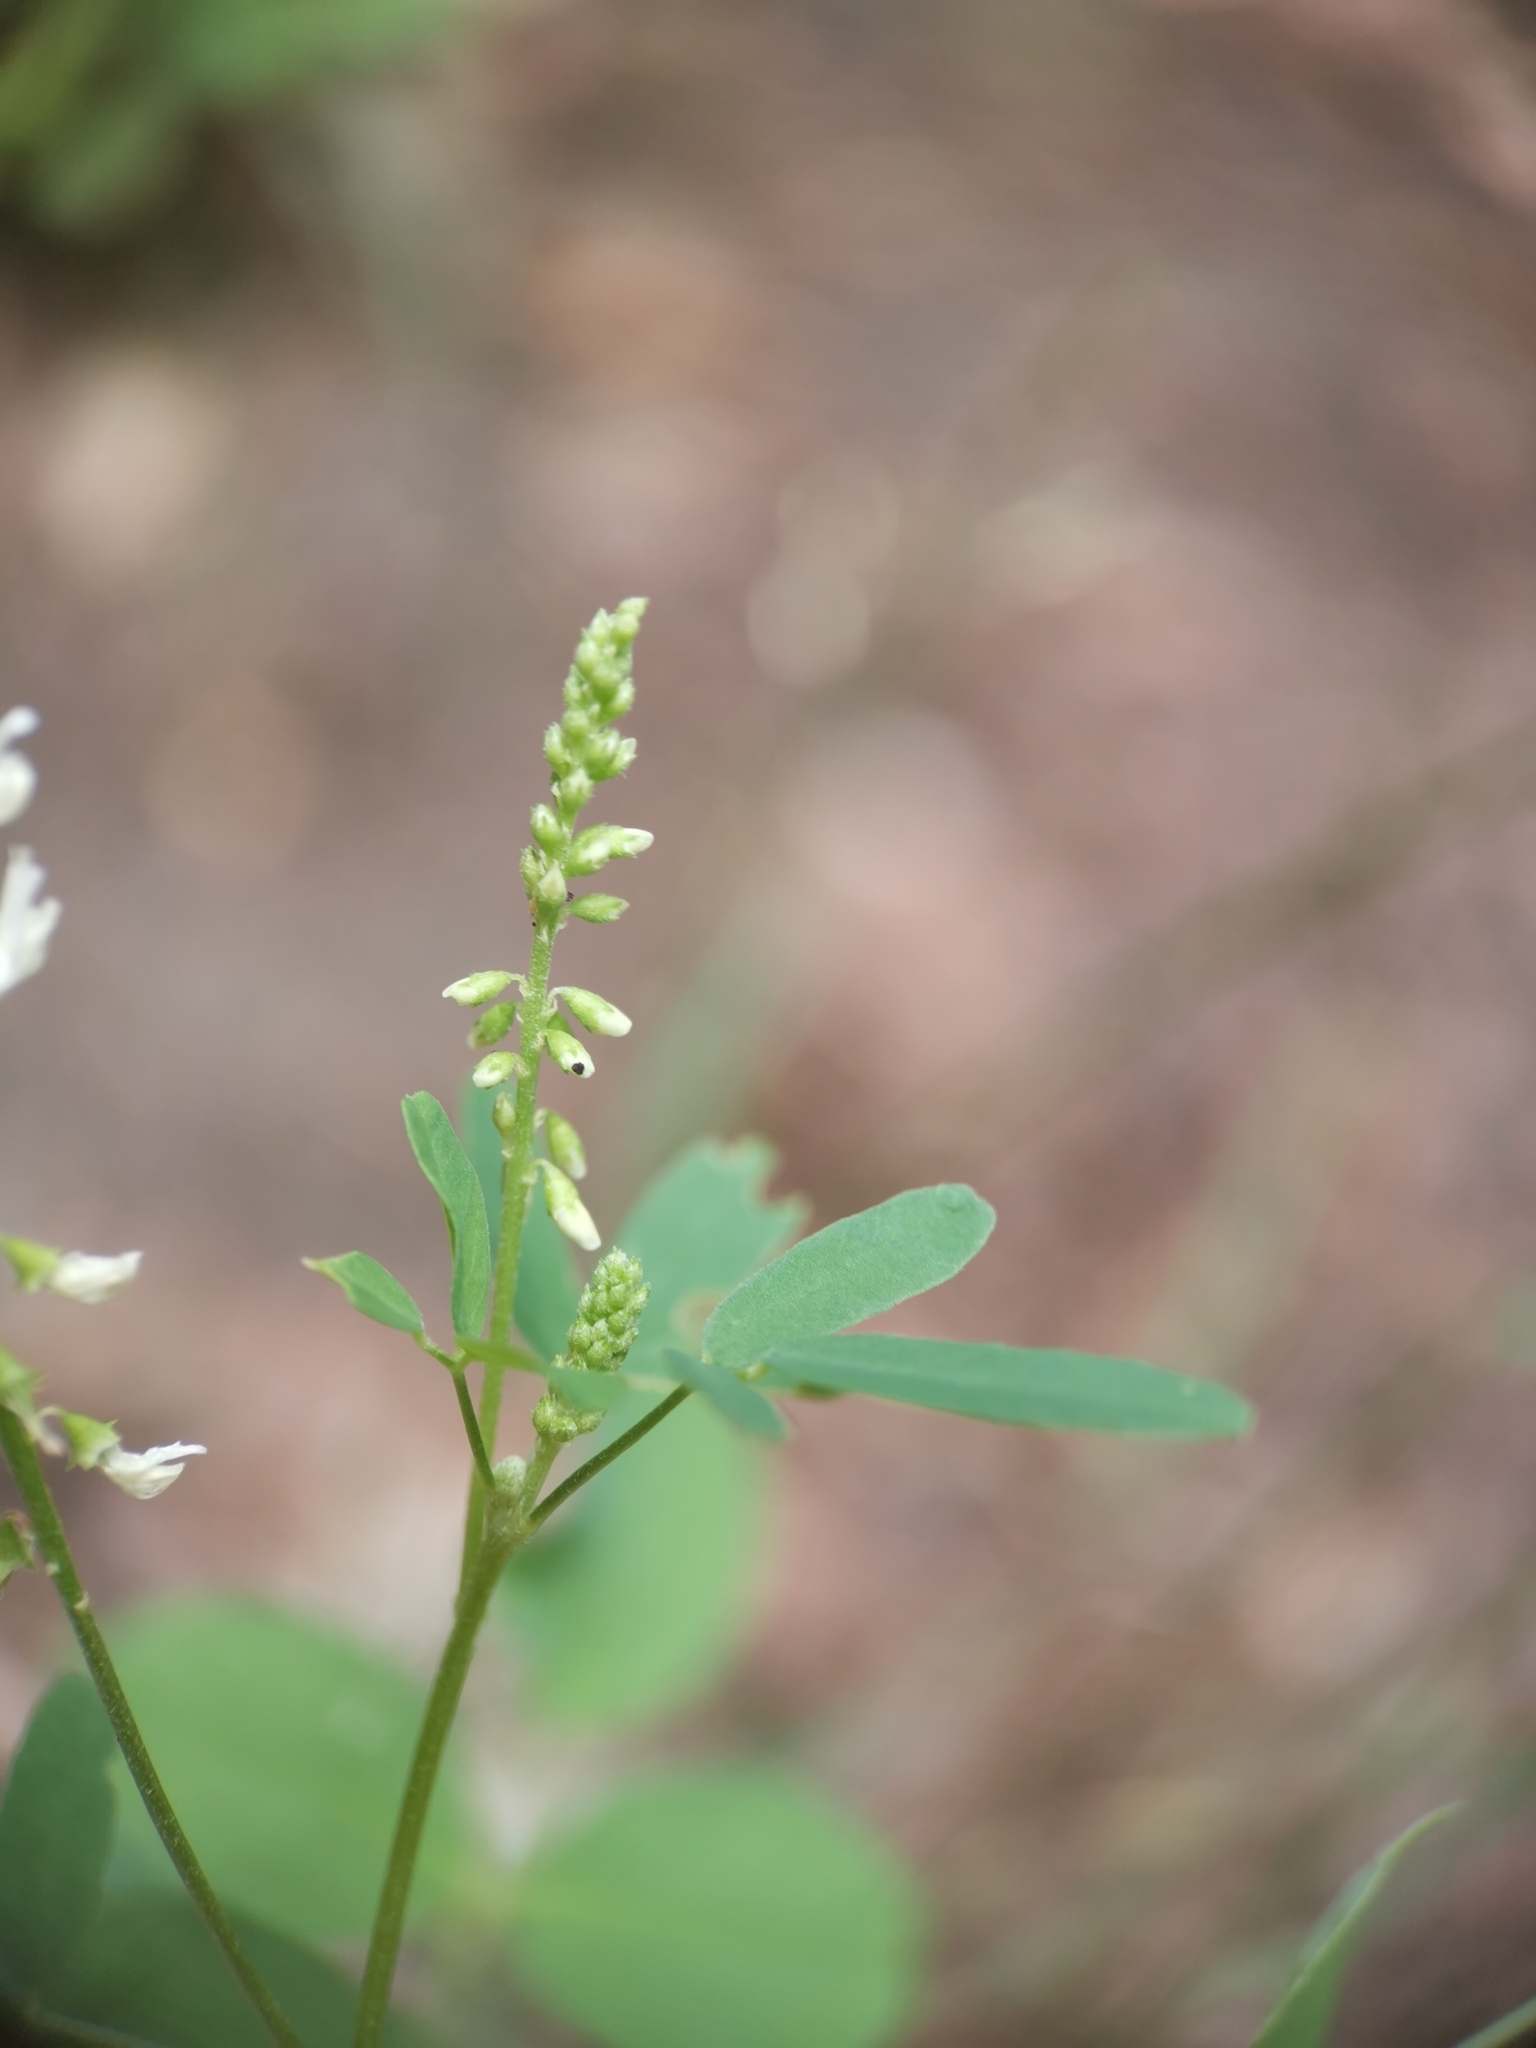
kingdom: Plantae
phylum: Tracheophyta
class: Magnoliopsida
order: Fabales
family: Fabaceae
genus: Melilotus
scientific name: Melilotus albus
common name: White melilot
